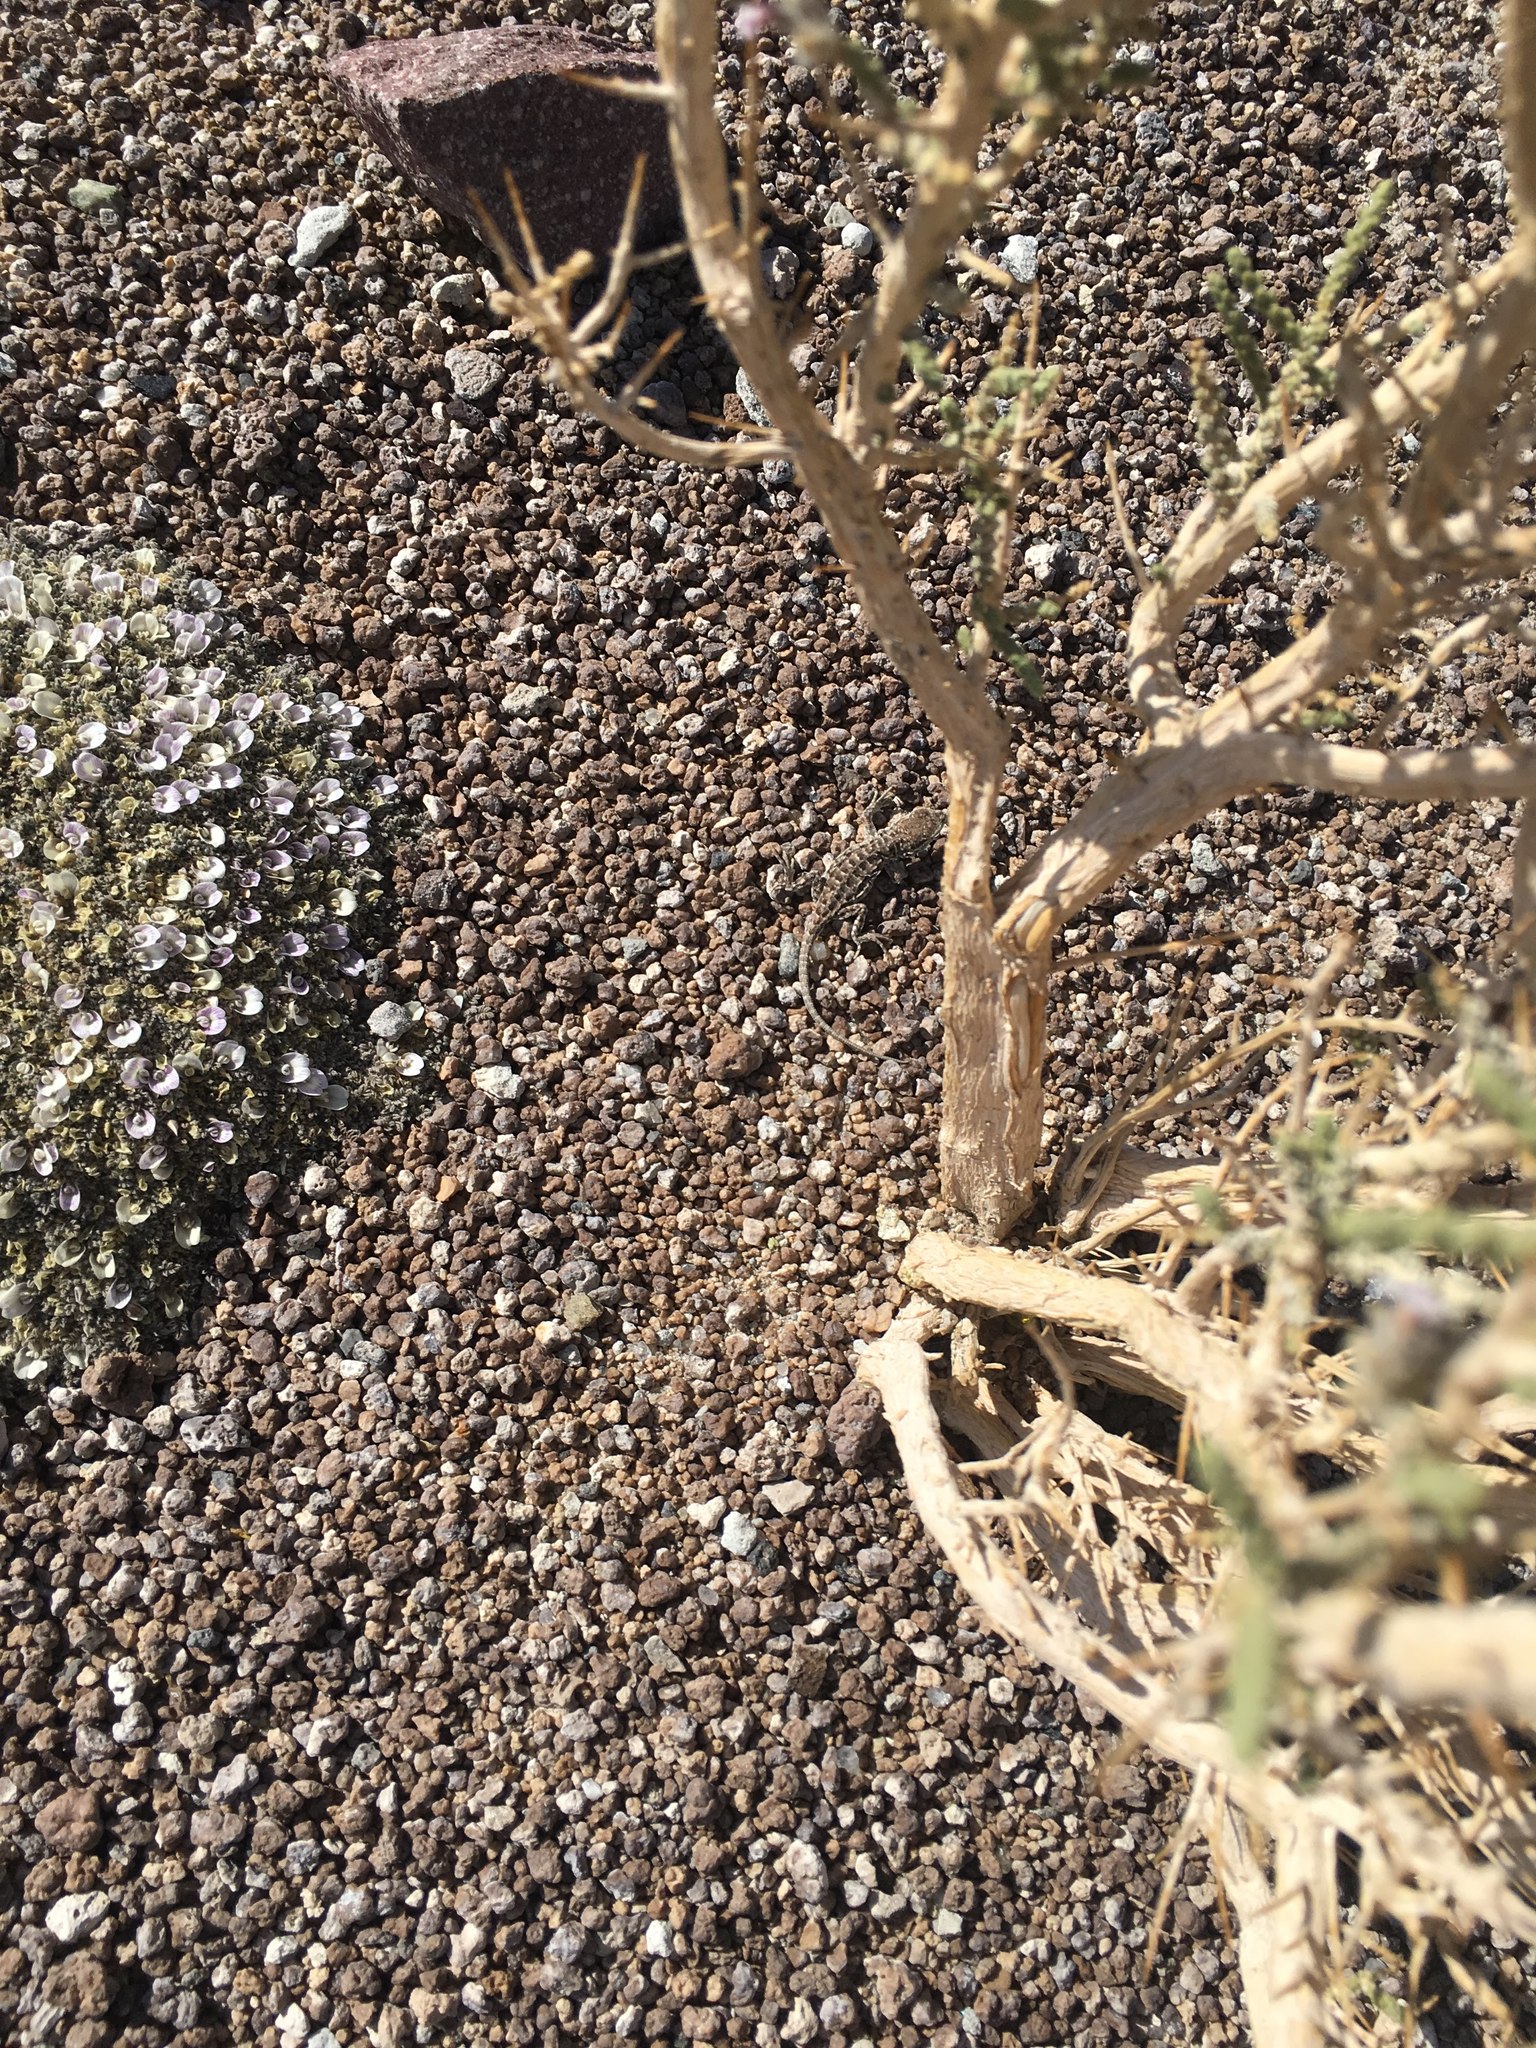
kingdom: Plantae
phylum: Tracheophyta
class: Magnoliopsida
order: Fabales
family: Fabaceae
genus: Astragalus
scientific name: Astragalus diminutivus
